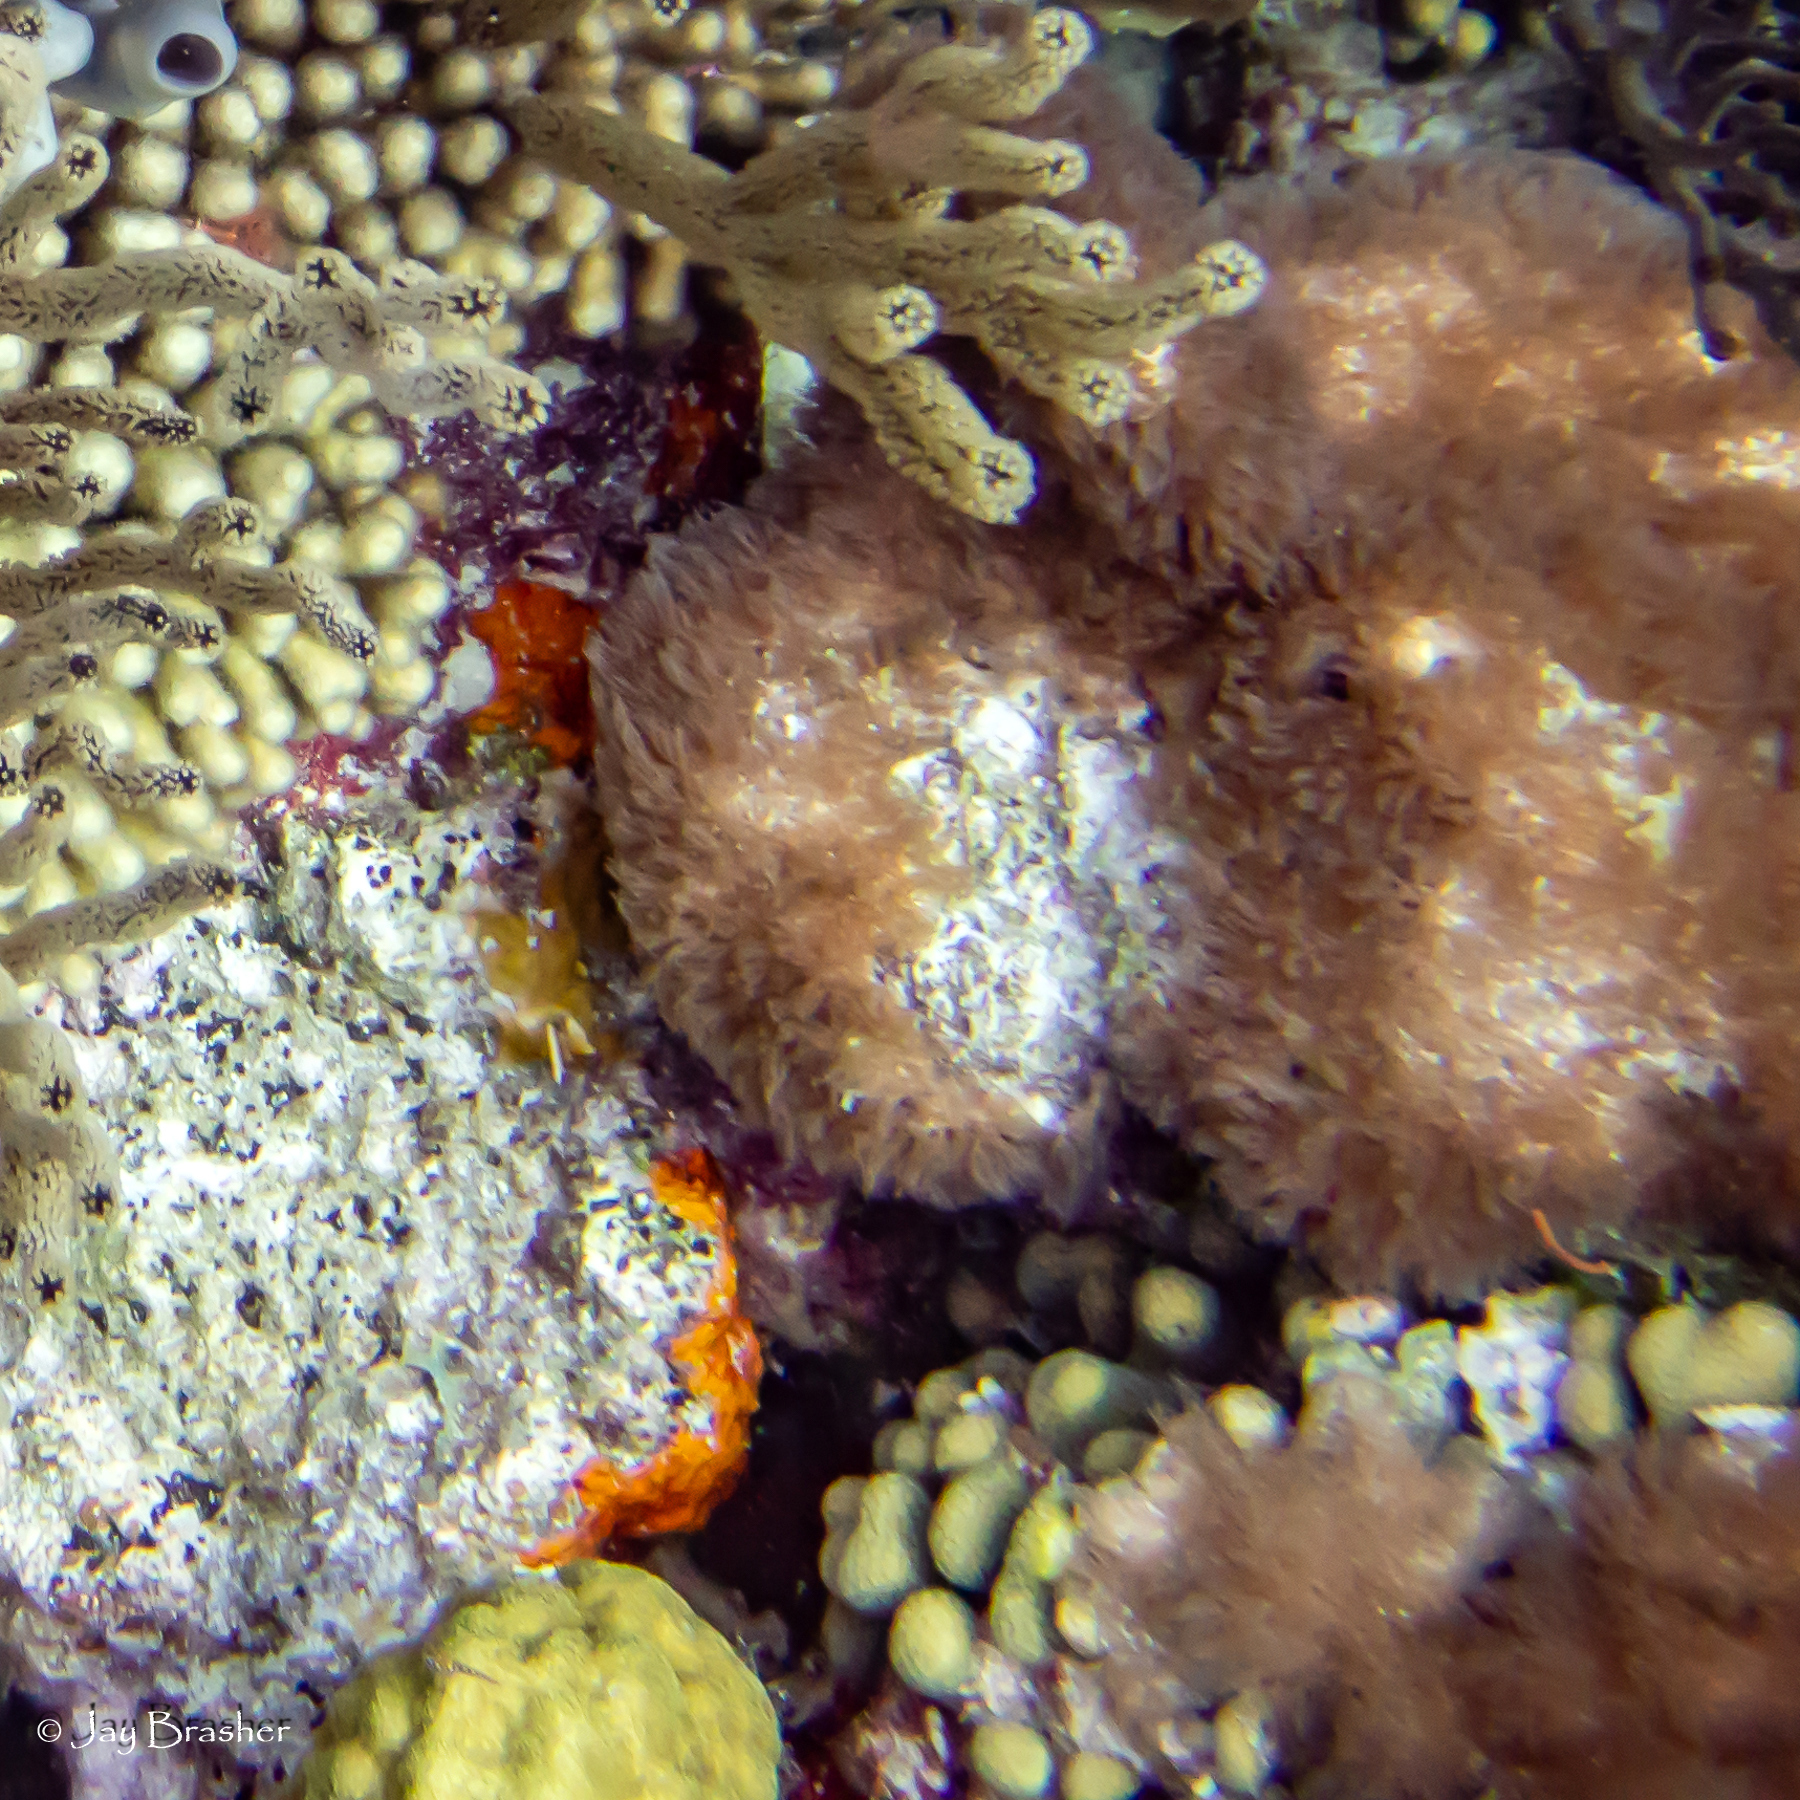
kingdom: Animalia
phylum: Cnidaria
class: Anthozoa
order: Scleralcyonacea
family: Erythropodiidae
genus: Erythropodium
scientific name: Erythropodium caribaeorum
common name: Encrusting gorgonian
